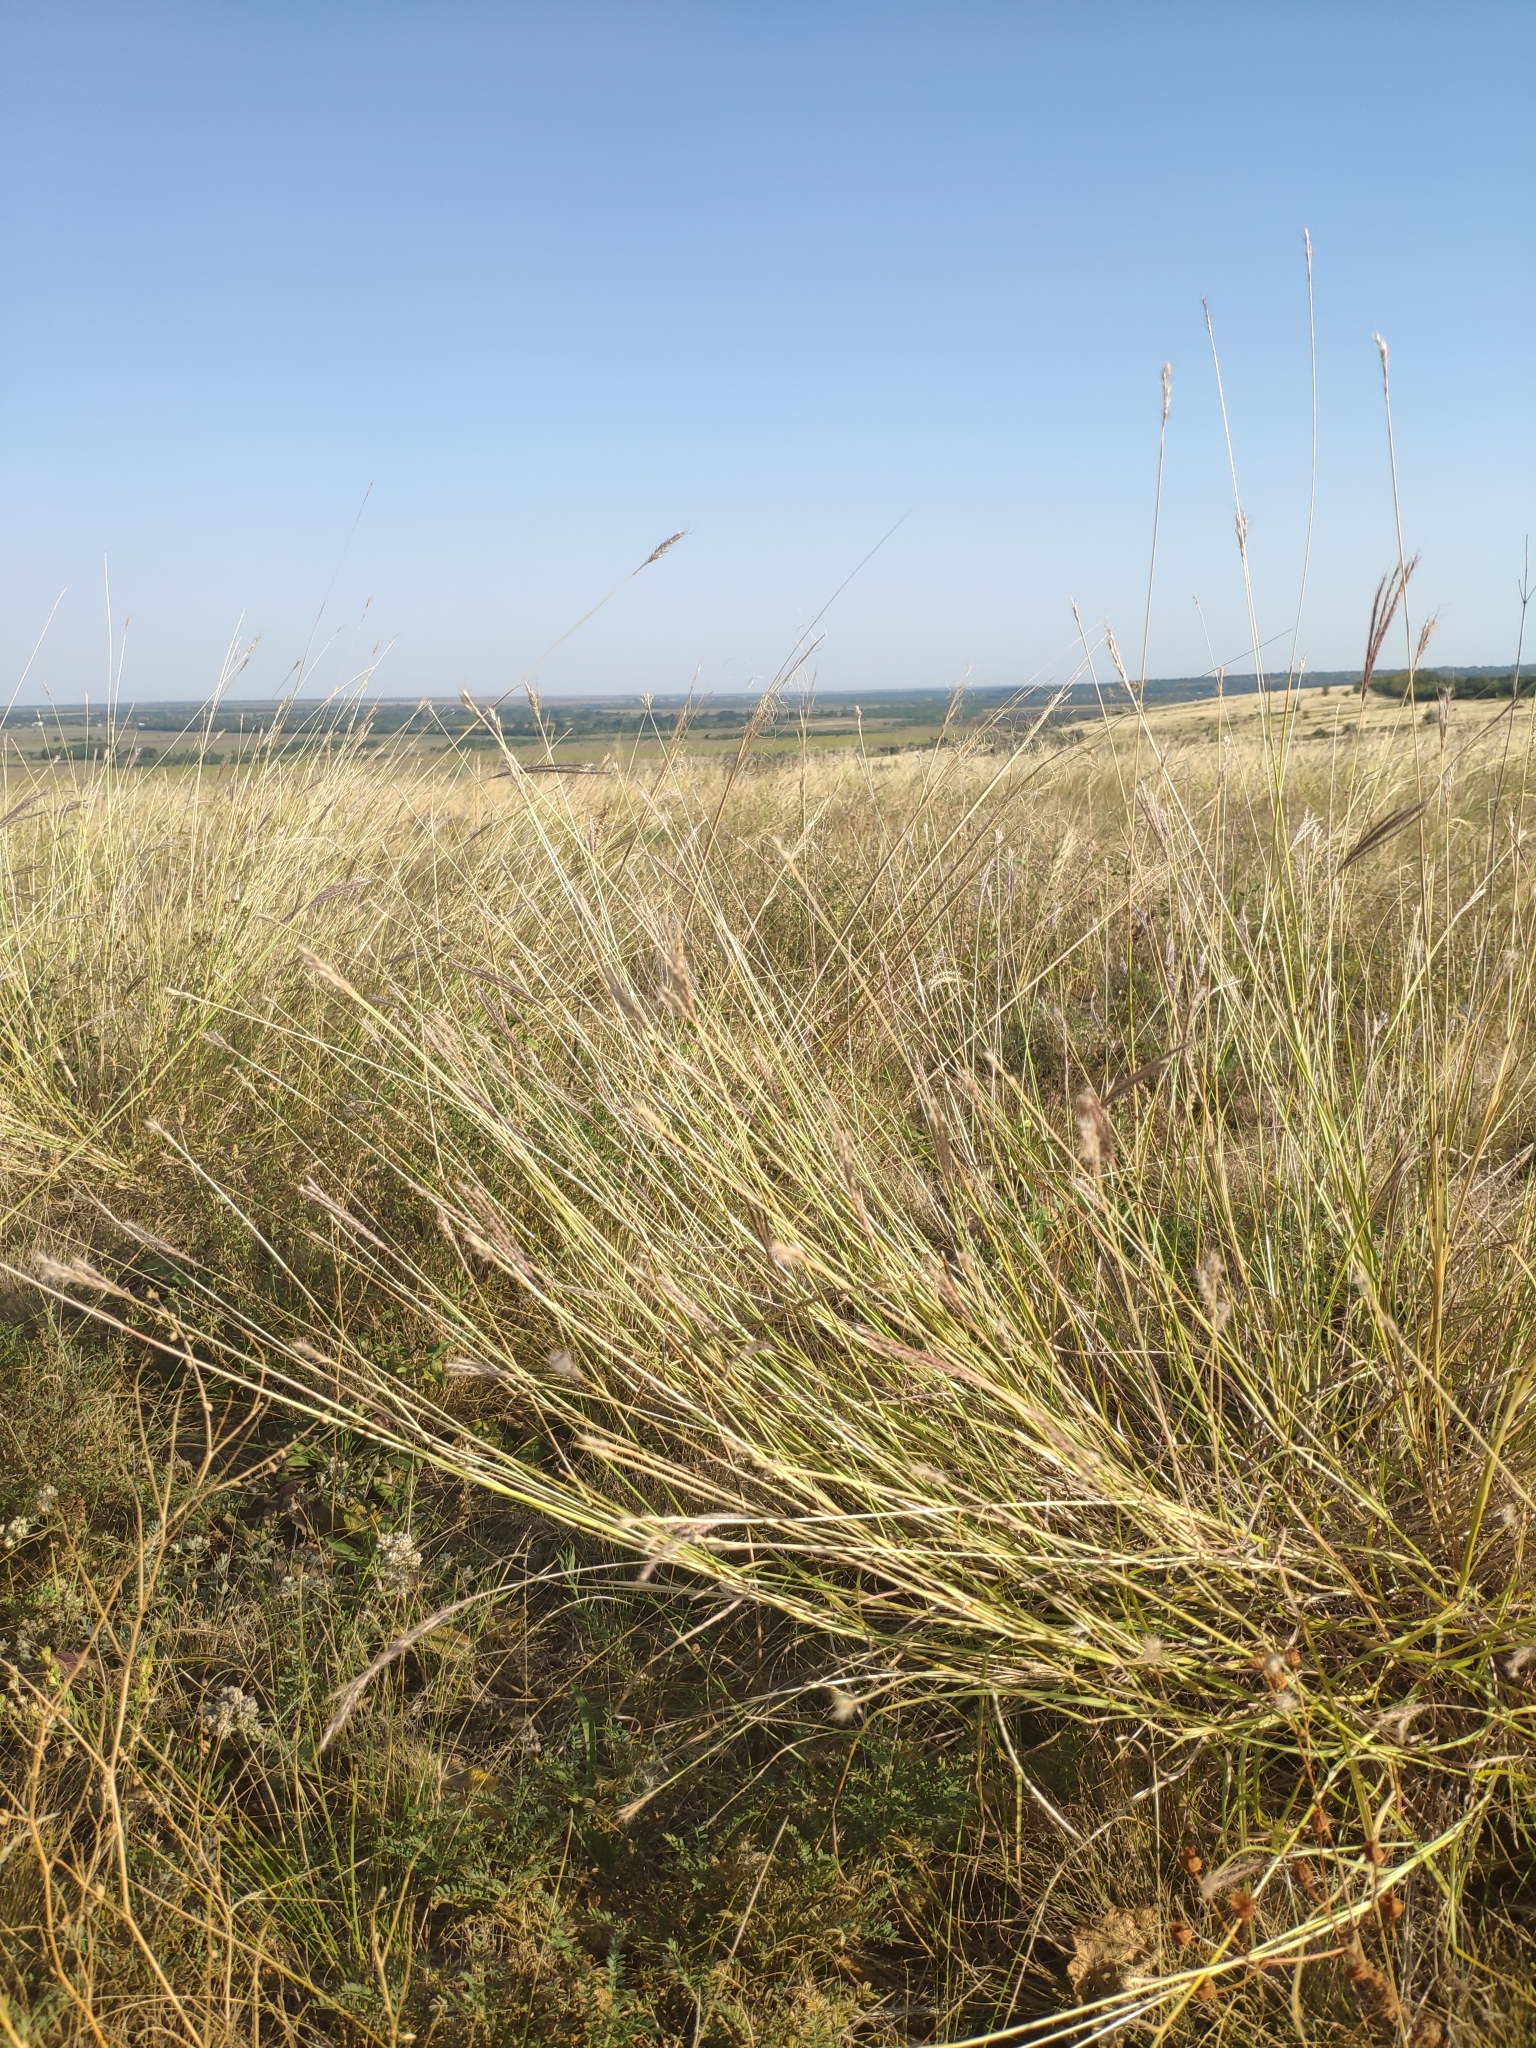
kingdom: Plantae
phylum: Tracheophyta
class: Liliopsida
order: Poales
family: Poaceae
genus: Bothriochloa
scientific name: Bothriochloa ischaemum
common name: Yellow bluestem
